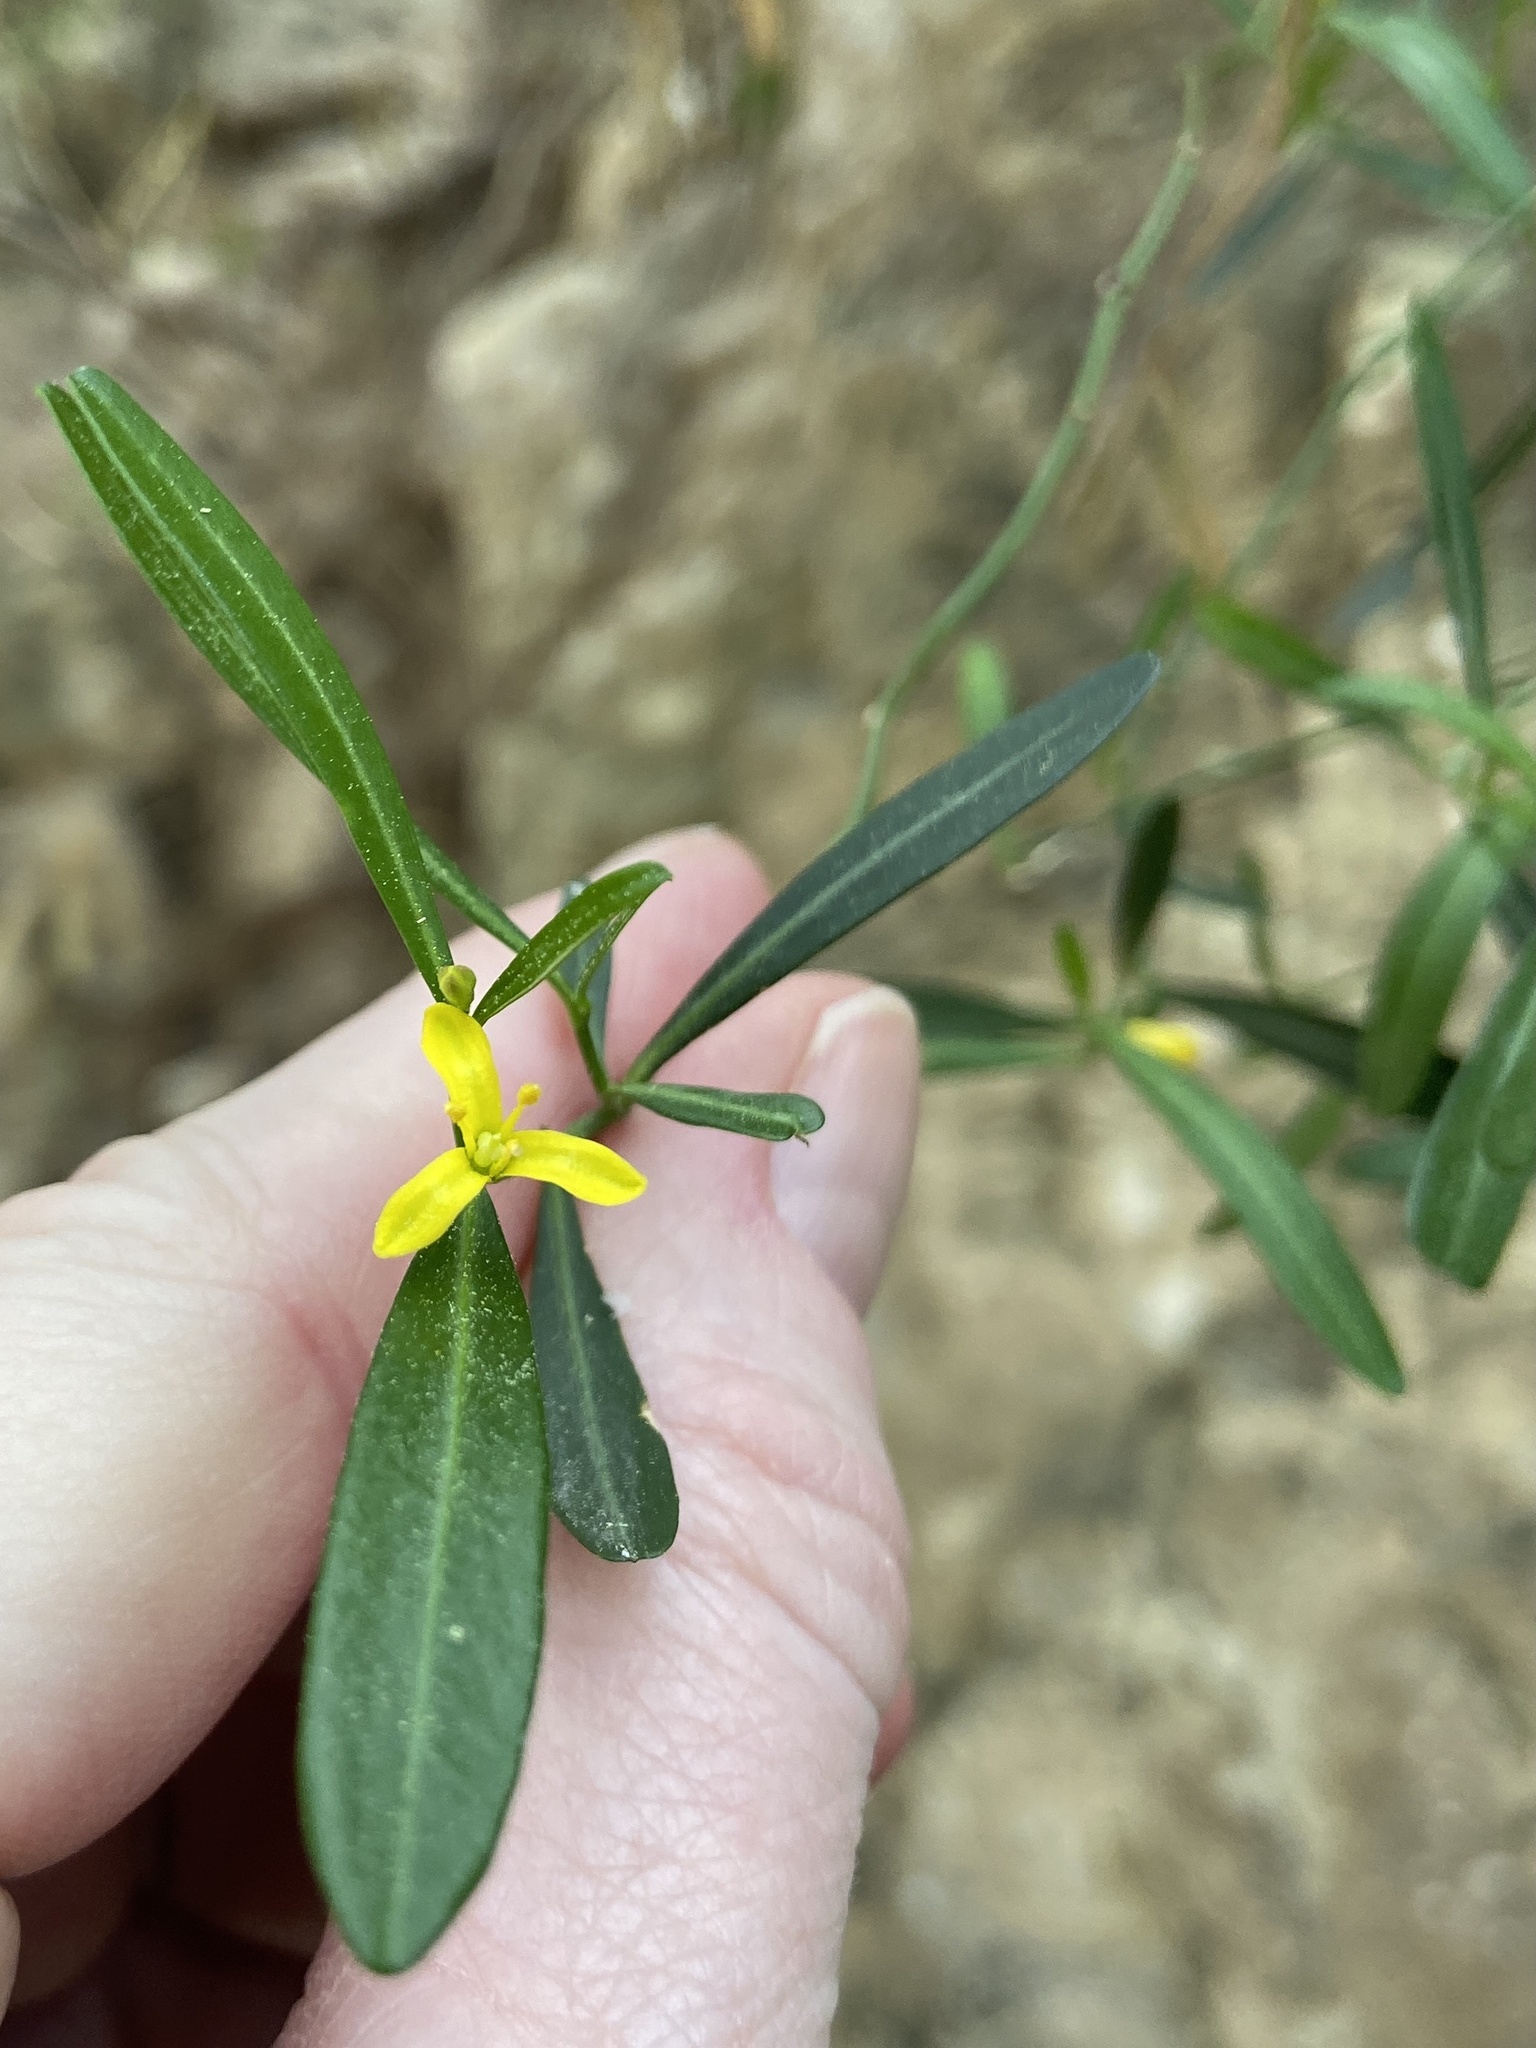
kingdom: Plantae
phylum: Tracheophyta
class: Magnoliopsida
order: Sapindales
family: Rutaceae
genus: Cneorum
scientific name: Cneorum tricoccon
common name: Spurge olive
